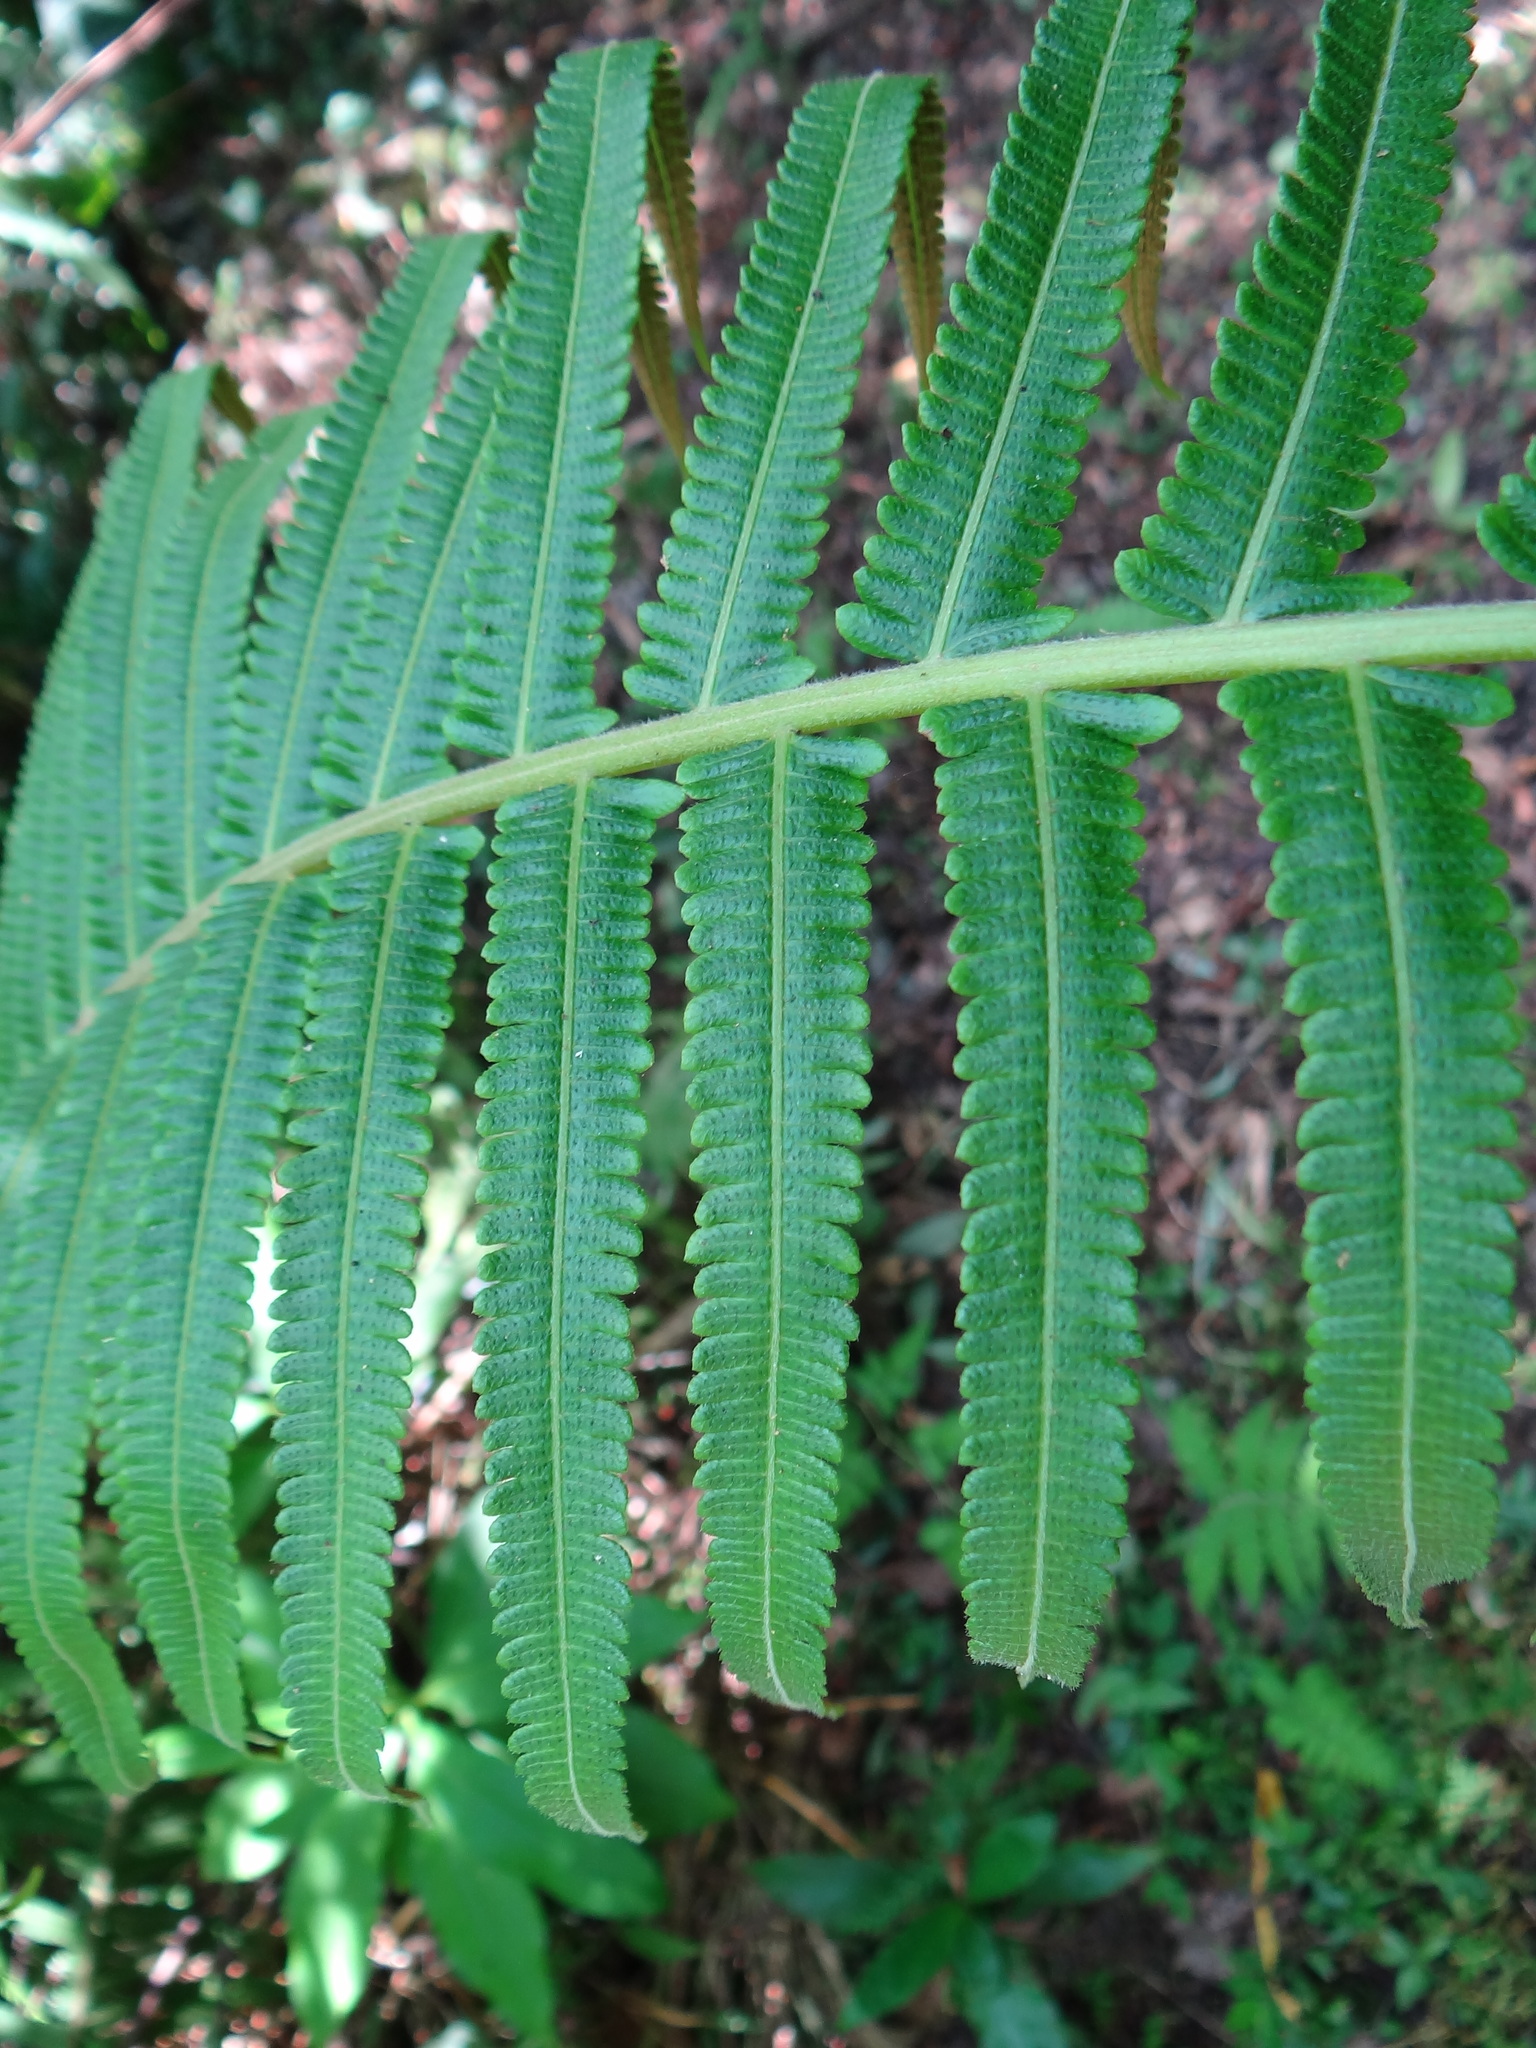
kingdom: Plantae
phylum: Tracheophyta
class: Polypodiopsida
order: Polypodiales
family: Thelypteridaceae
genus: Sphaerostephanos
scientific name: Sphaerostephanos taiwanensis
